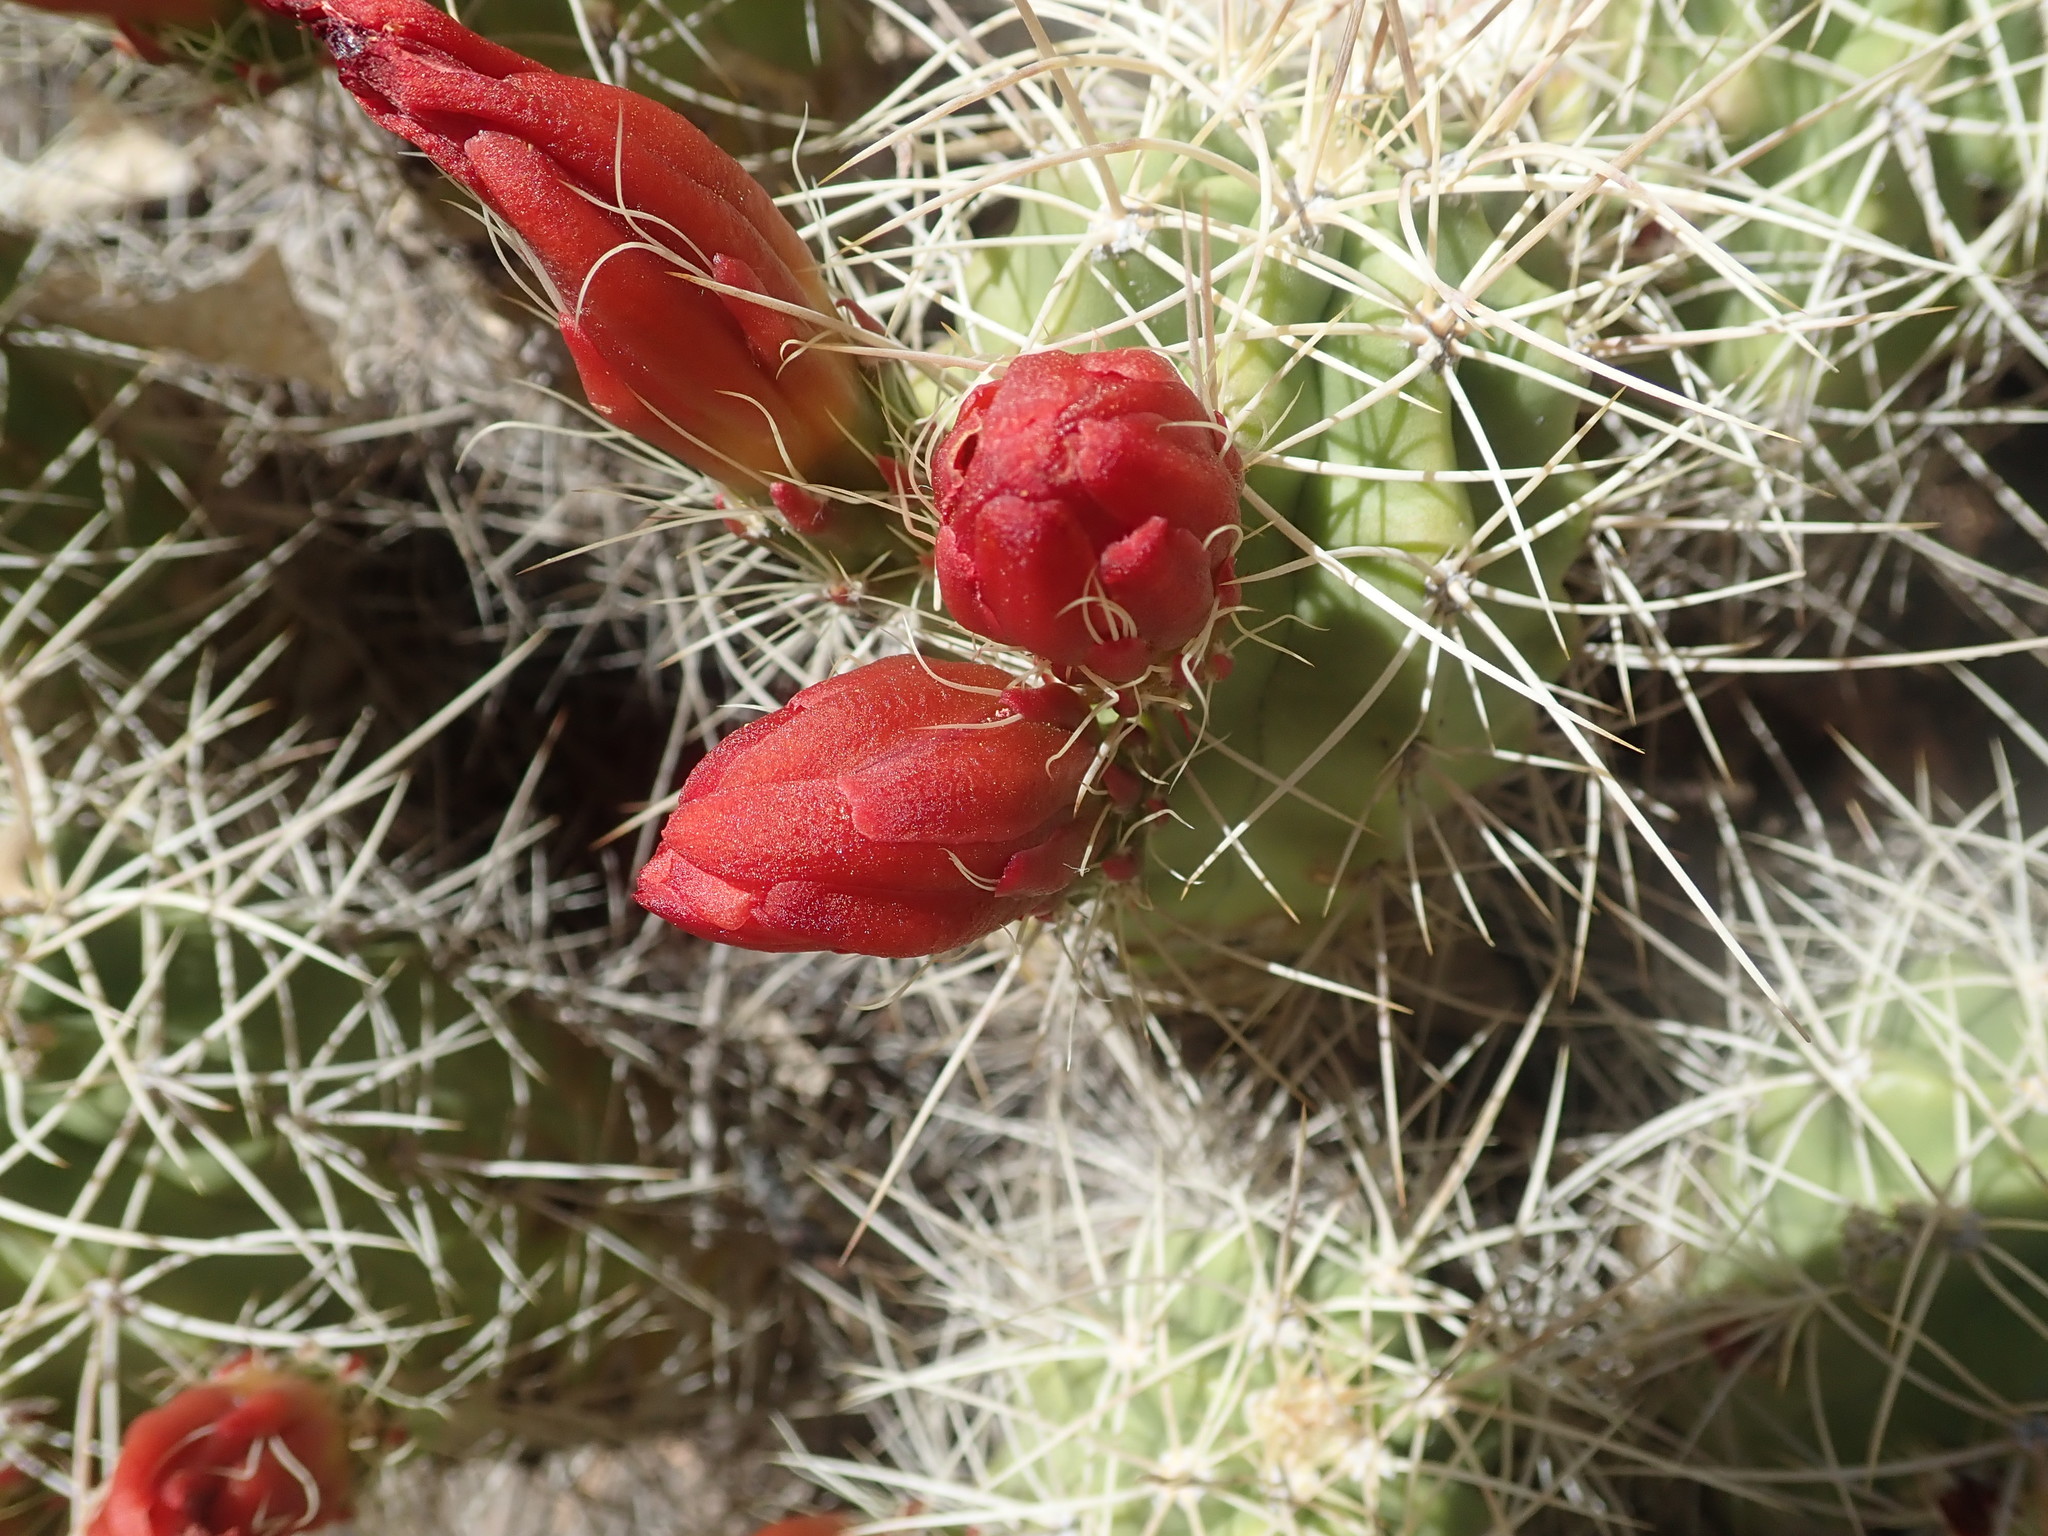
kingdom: Plantae
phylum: Tracheophyta
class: Magnoliopsida
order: Caryophyllales
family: Cactaceae
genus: Echinocereus
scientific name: Echinocereus triglochidiatus
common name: Claretcup hedgehog
